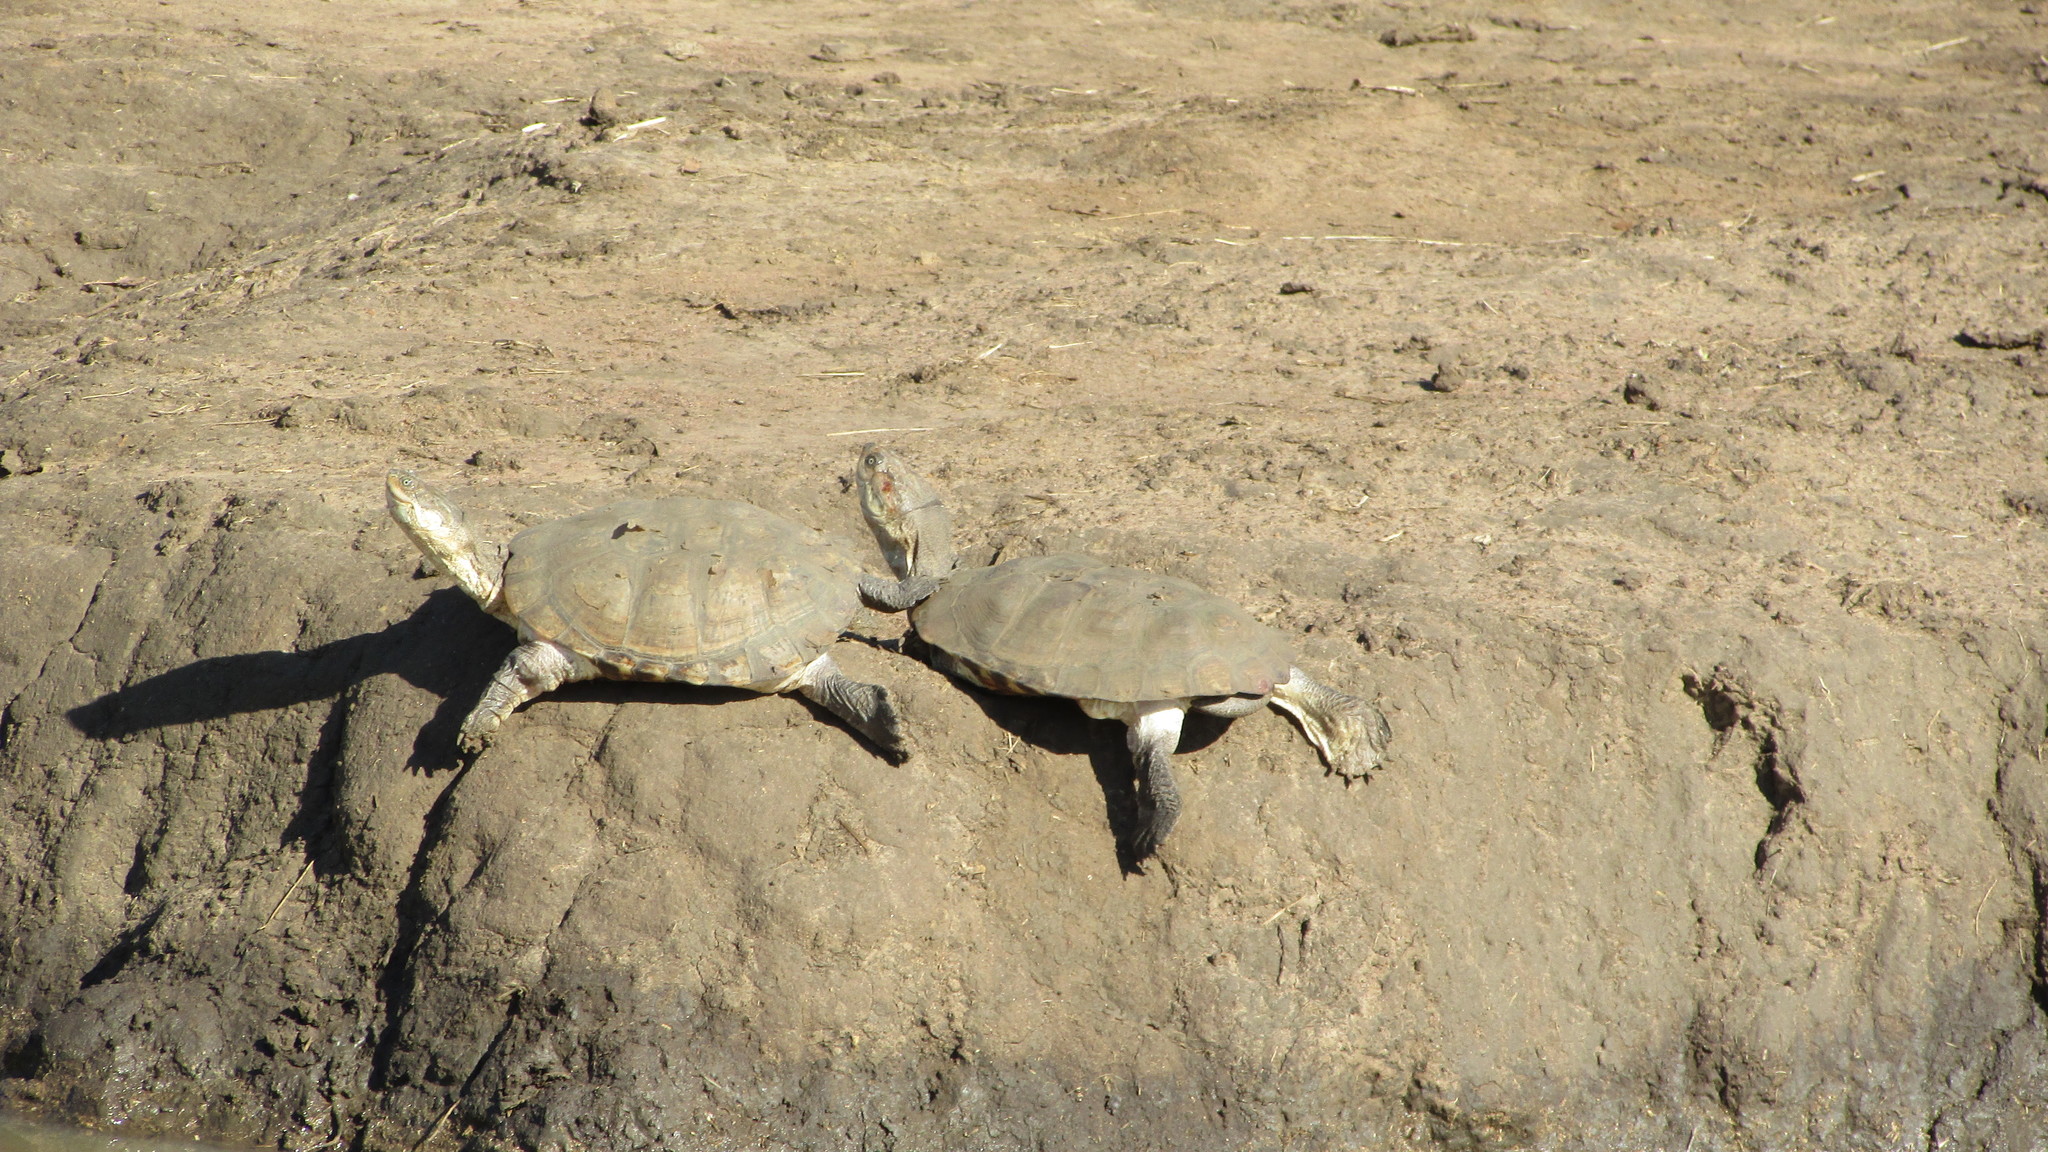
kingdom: Animalia
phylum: Chordata
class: Testudines
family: Pelomedusidae
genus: Pelomedusa
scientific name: Pelomedusa galeata
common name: South african helmeted terrapin
